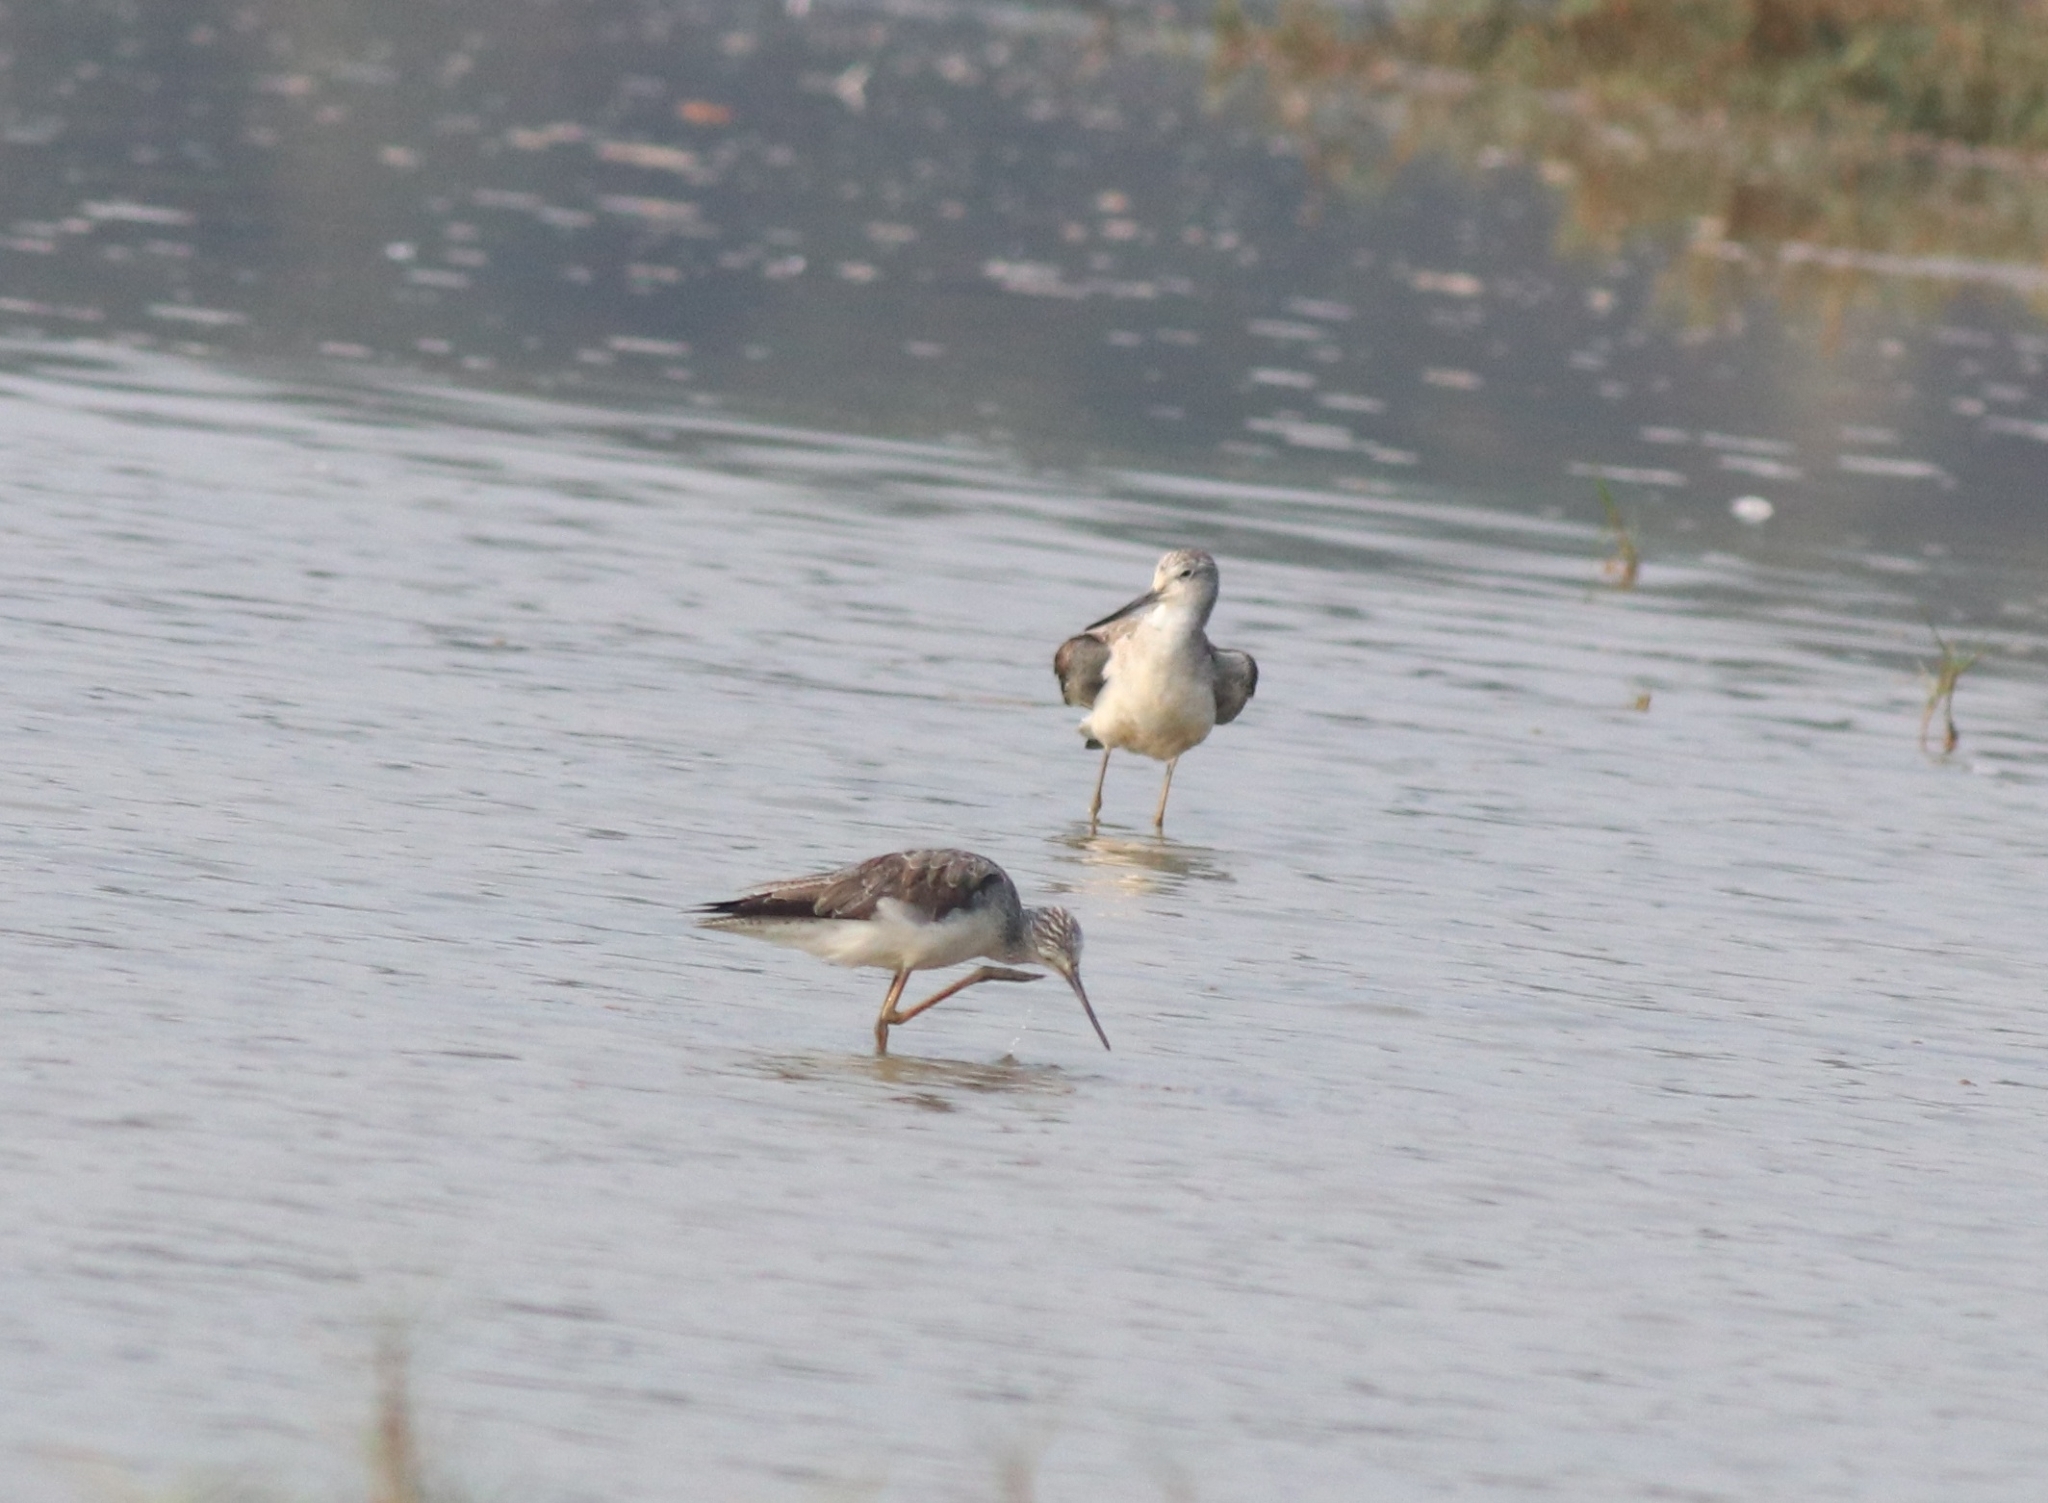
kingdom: Animalia
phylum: Chordata
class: Aves
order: Charadriiformes
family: Scolopacidae
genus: Tringa
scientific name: Tringa nebularia
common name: Common greenshank
